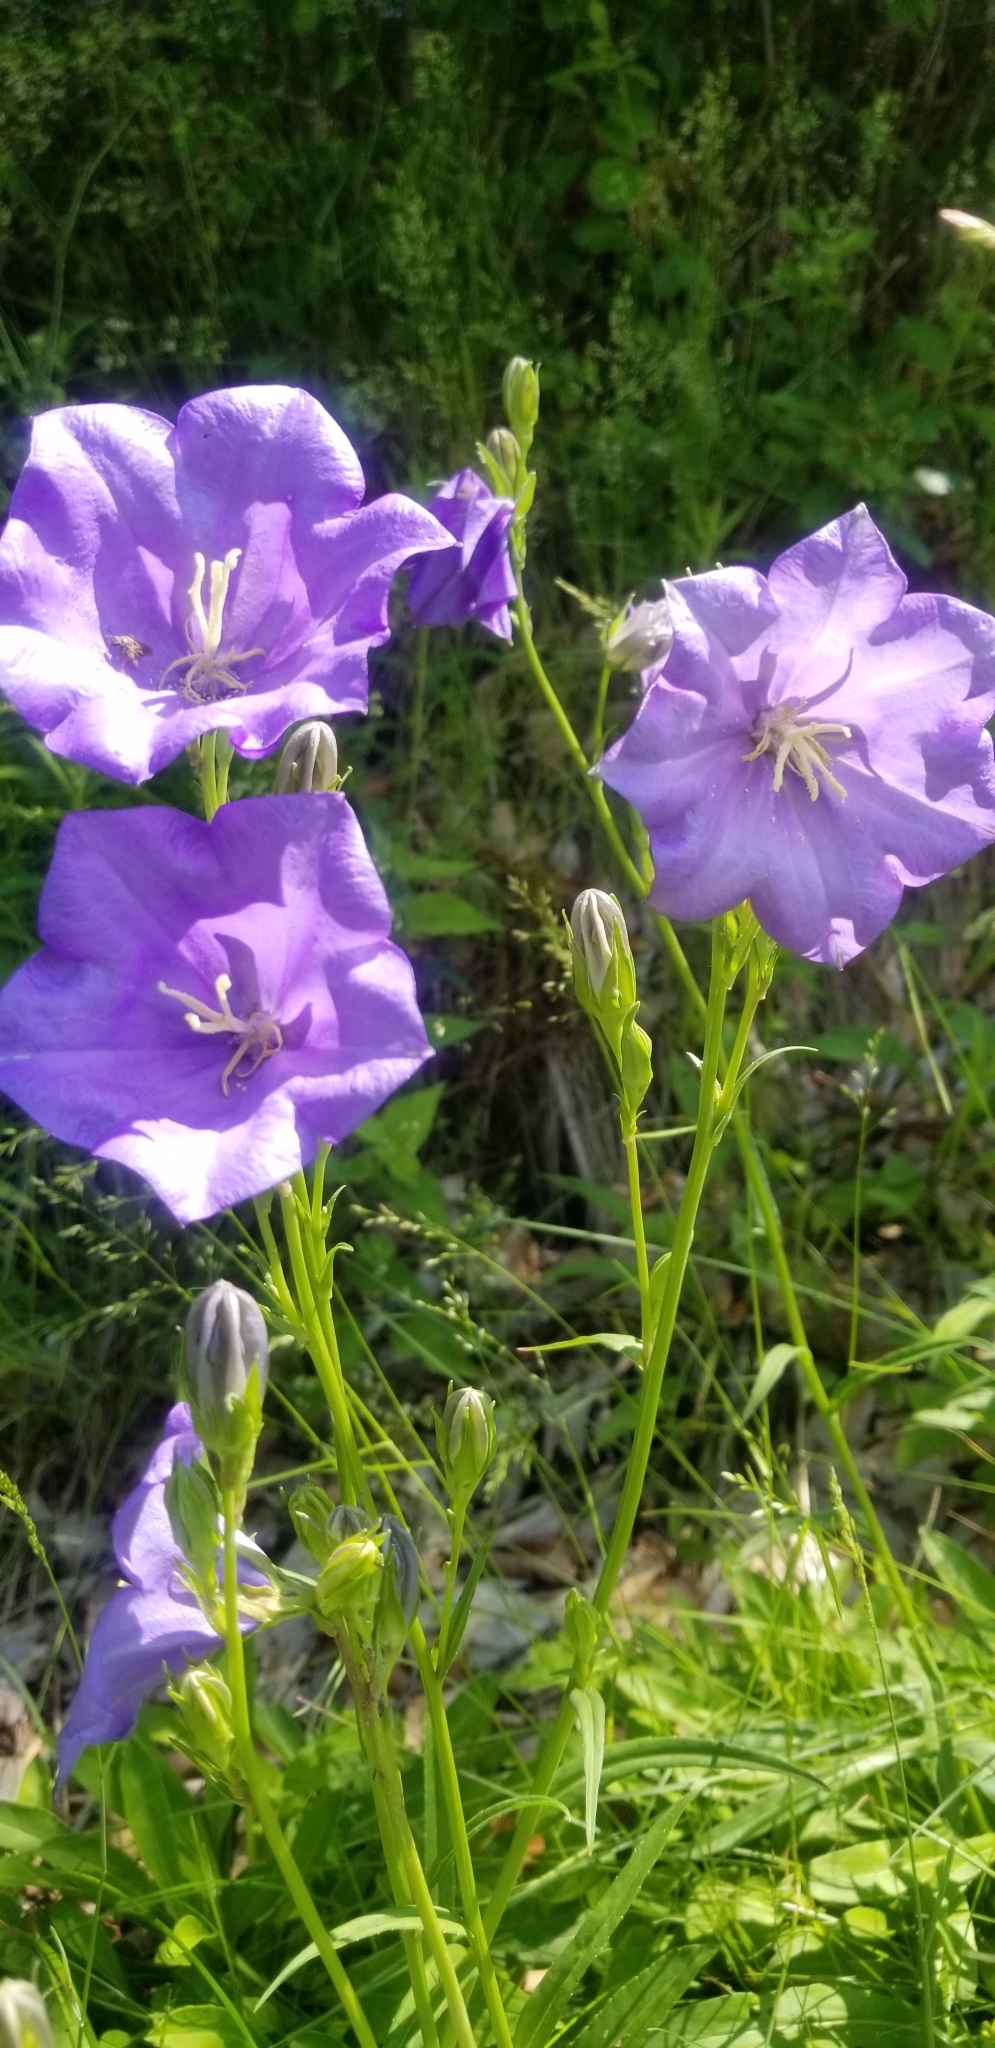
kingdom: Plantae
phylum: Tracheophyta
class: Magnoliopsida
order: Asterales
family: Campanulaceae
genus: Campanula
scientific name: Campanula persicifolia
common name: Peach-leaved bellflower
